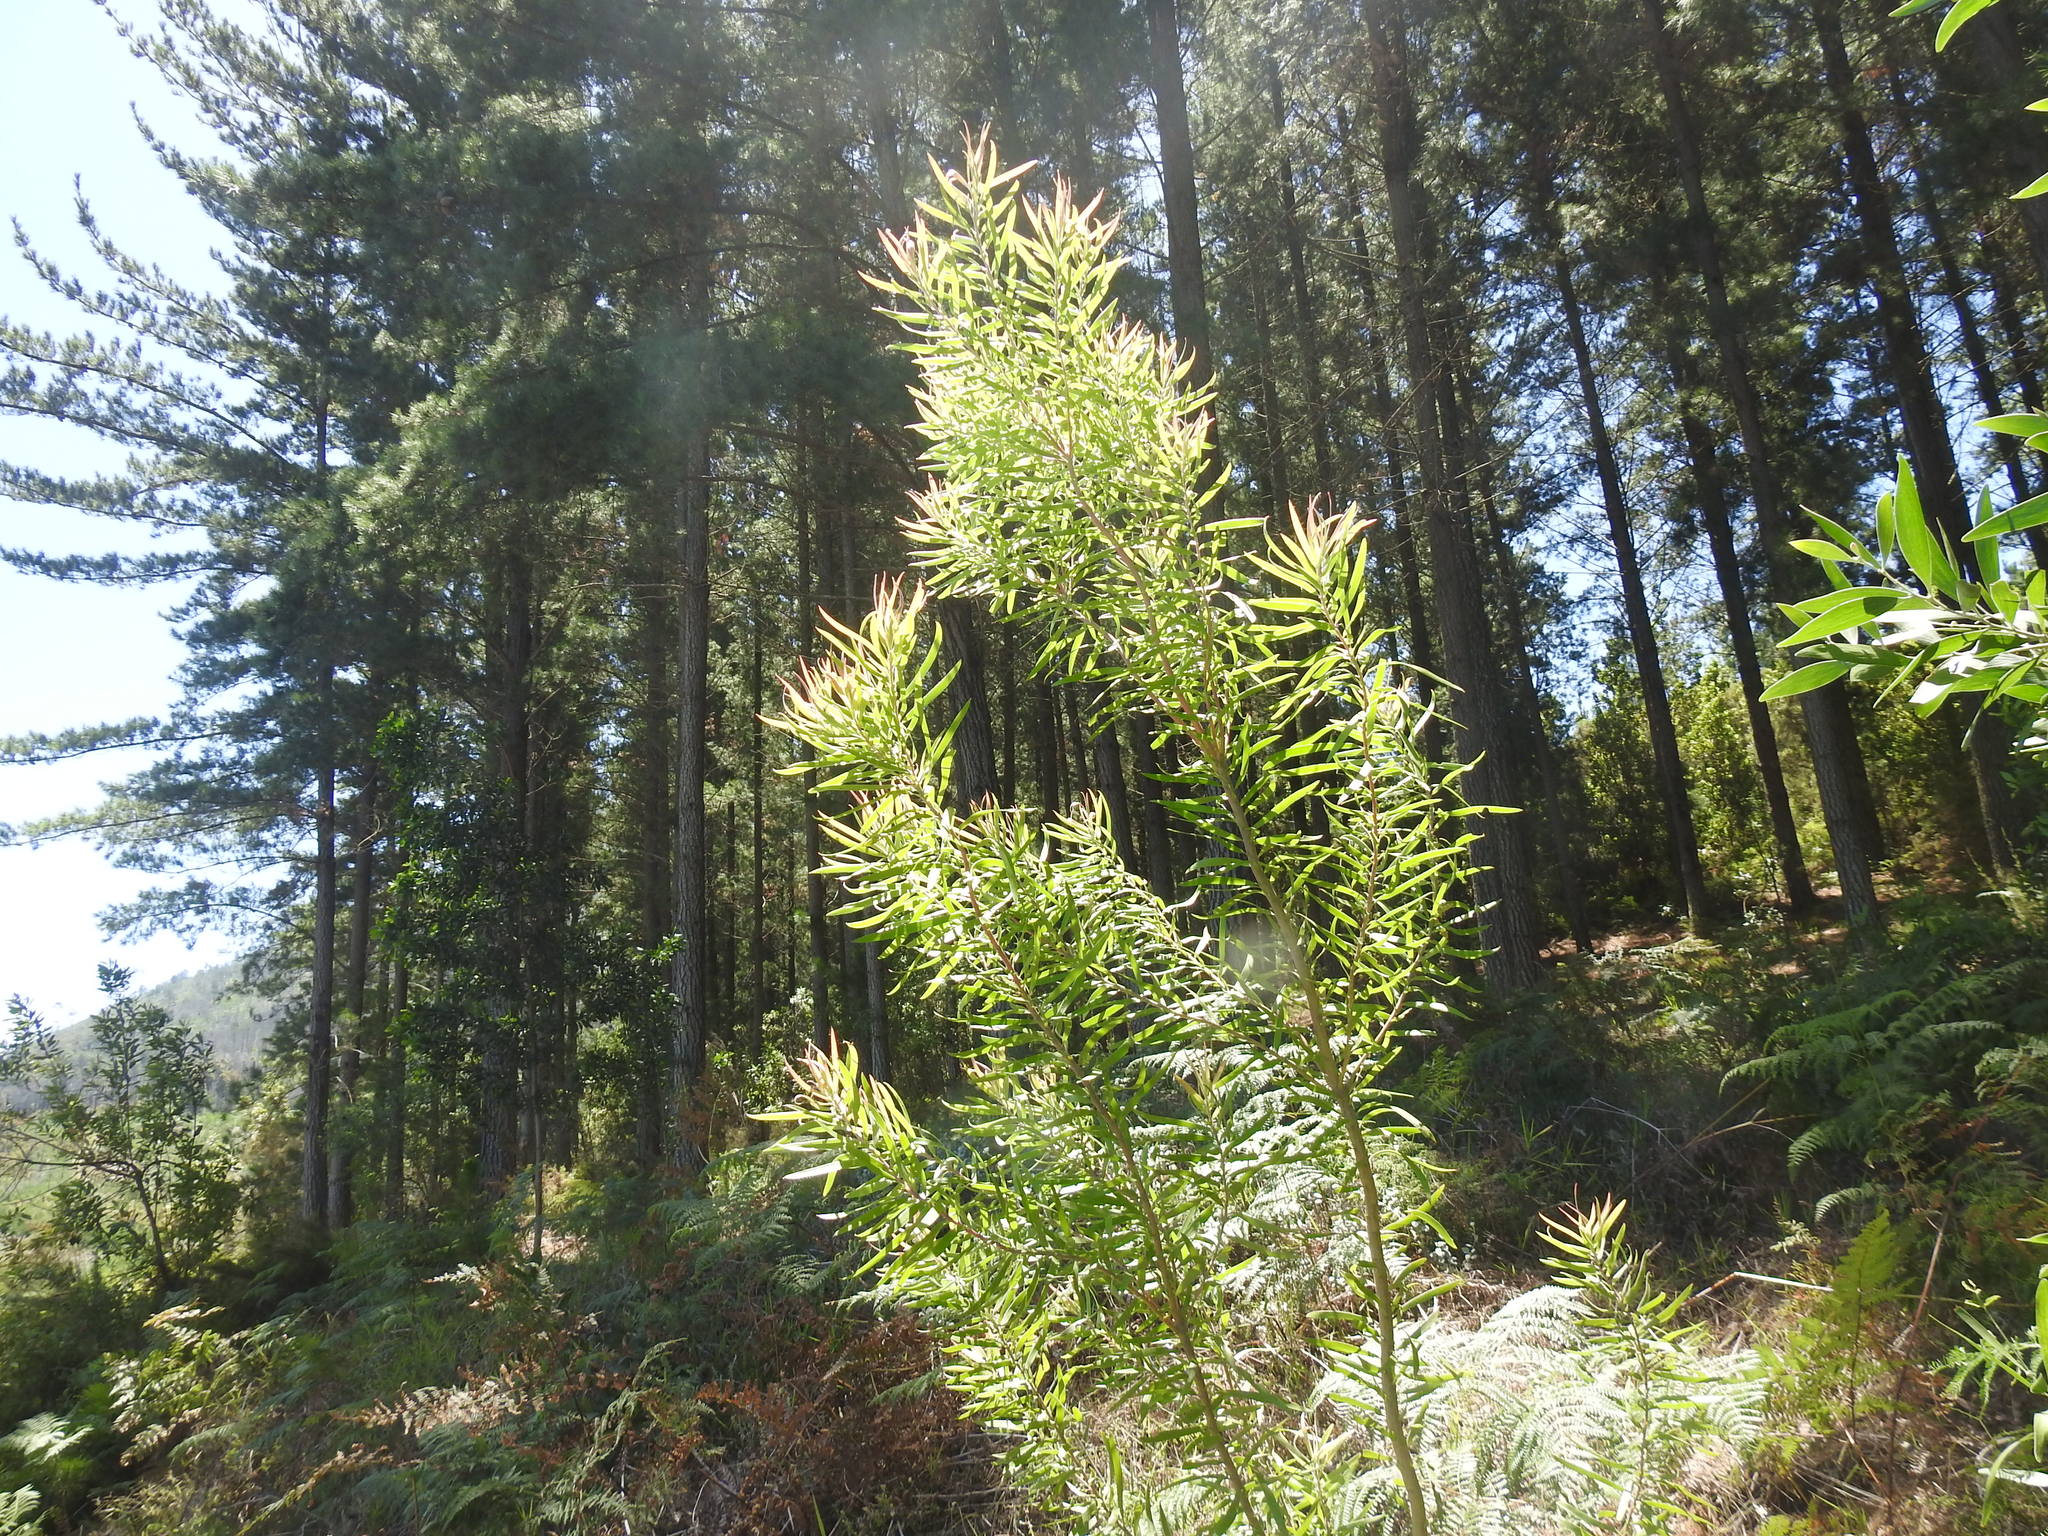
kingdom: Plantae
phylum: Tracheophyta
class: Magnoliopsida
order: Proteales
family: Proteaceae
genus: Leucadendron
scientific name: Leucadendron eucalyptifolium
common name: Gum-leaved conebush
